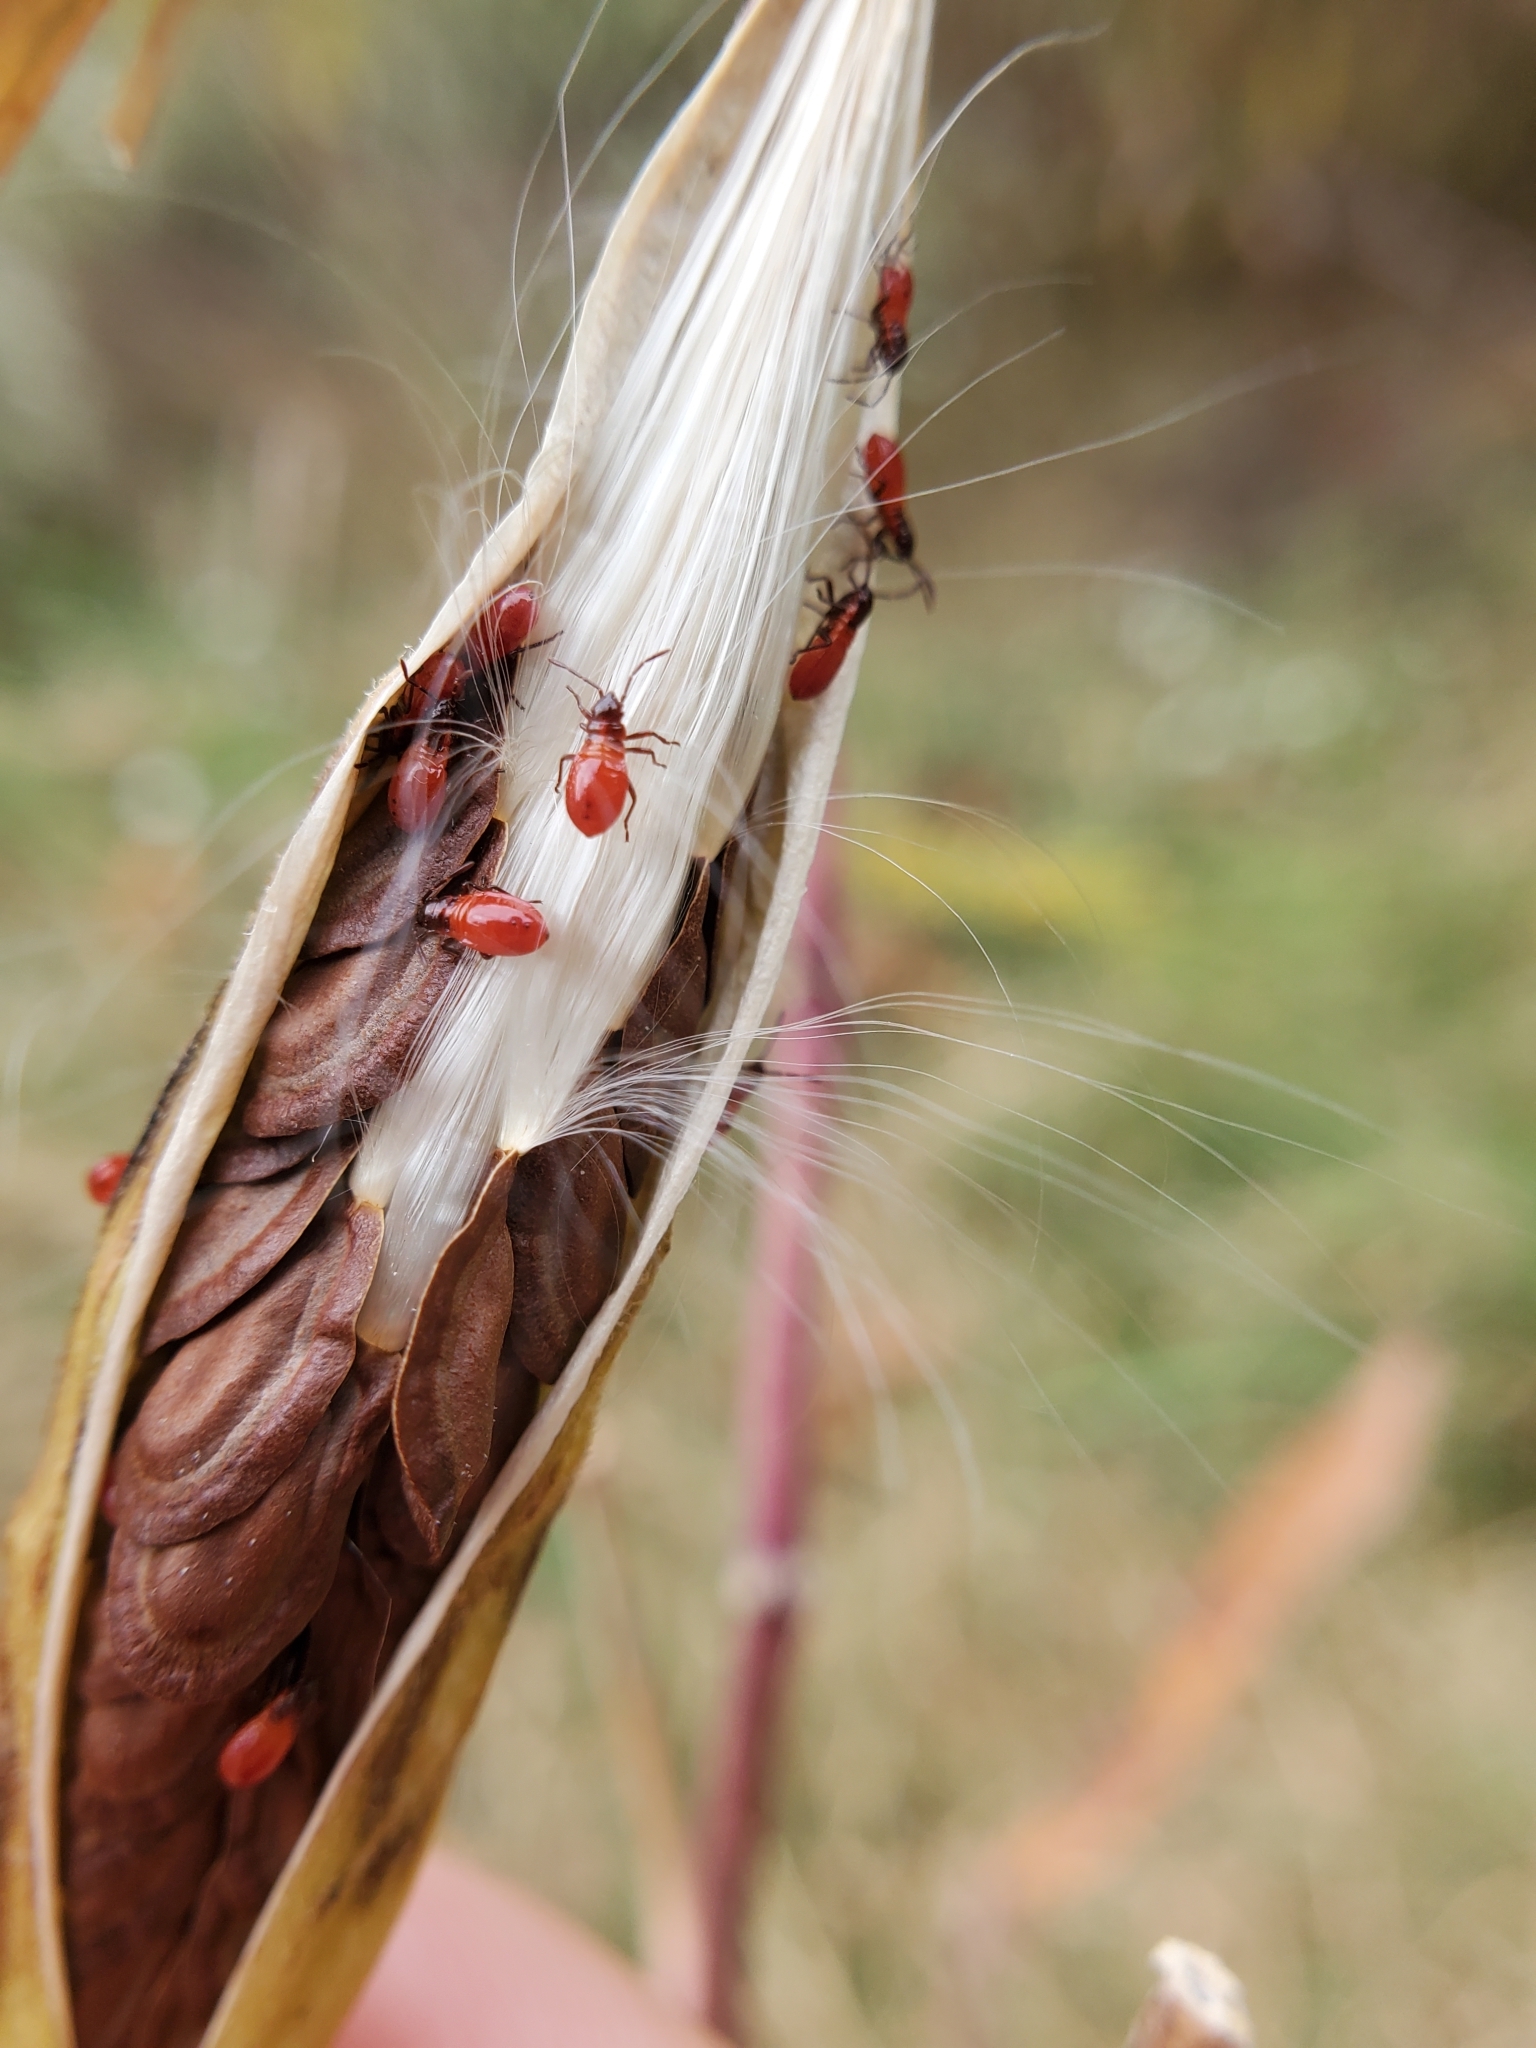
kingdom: Animalia
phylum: Arthropoda
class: Insecta
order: Hemiptera
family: Lygaeidae
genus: Oncopeltus
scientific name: Oncopeltus fasciatus
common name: Large milkweed bug
